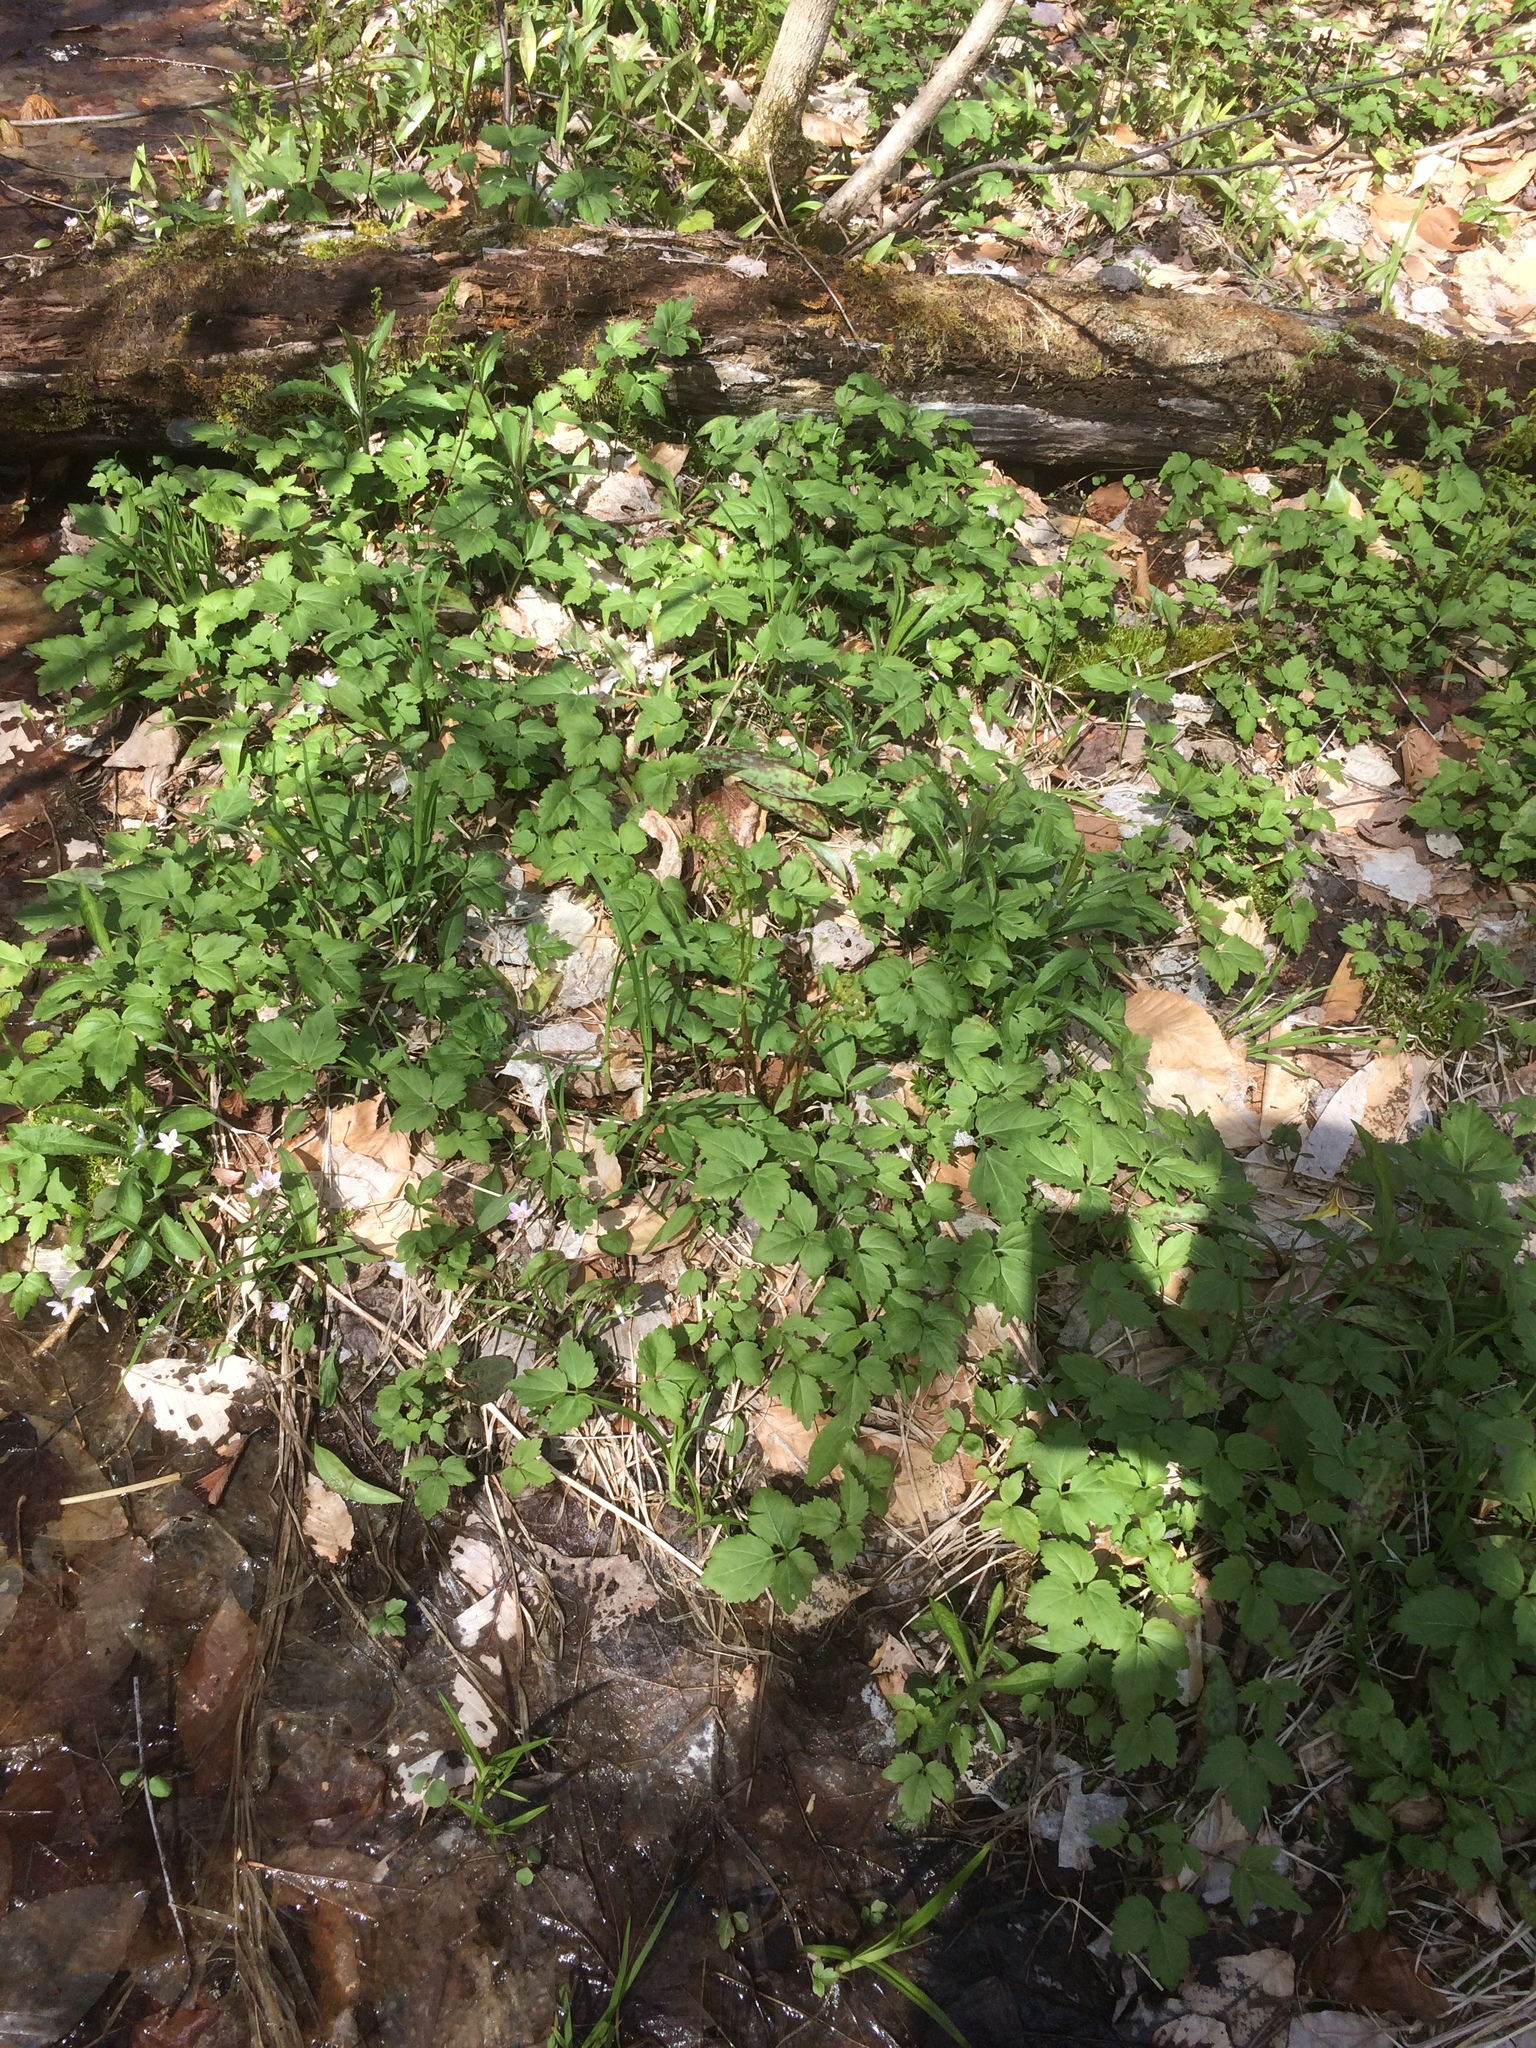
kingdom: Plantae
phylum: Tracheophyta
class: Magnoliopsida
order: Brassicales
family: Brassicaceae
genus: Cardamine
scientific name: Cardamine diphylla
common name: Broad-leaved toothwort
